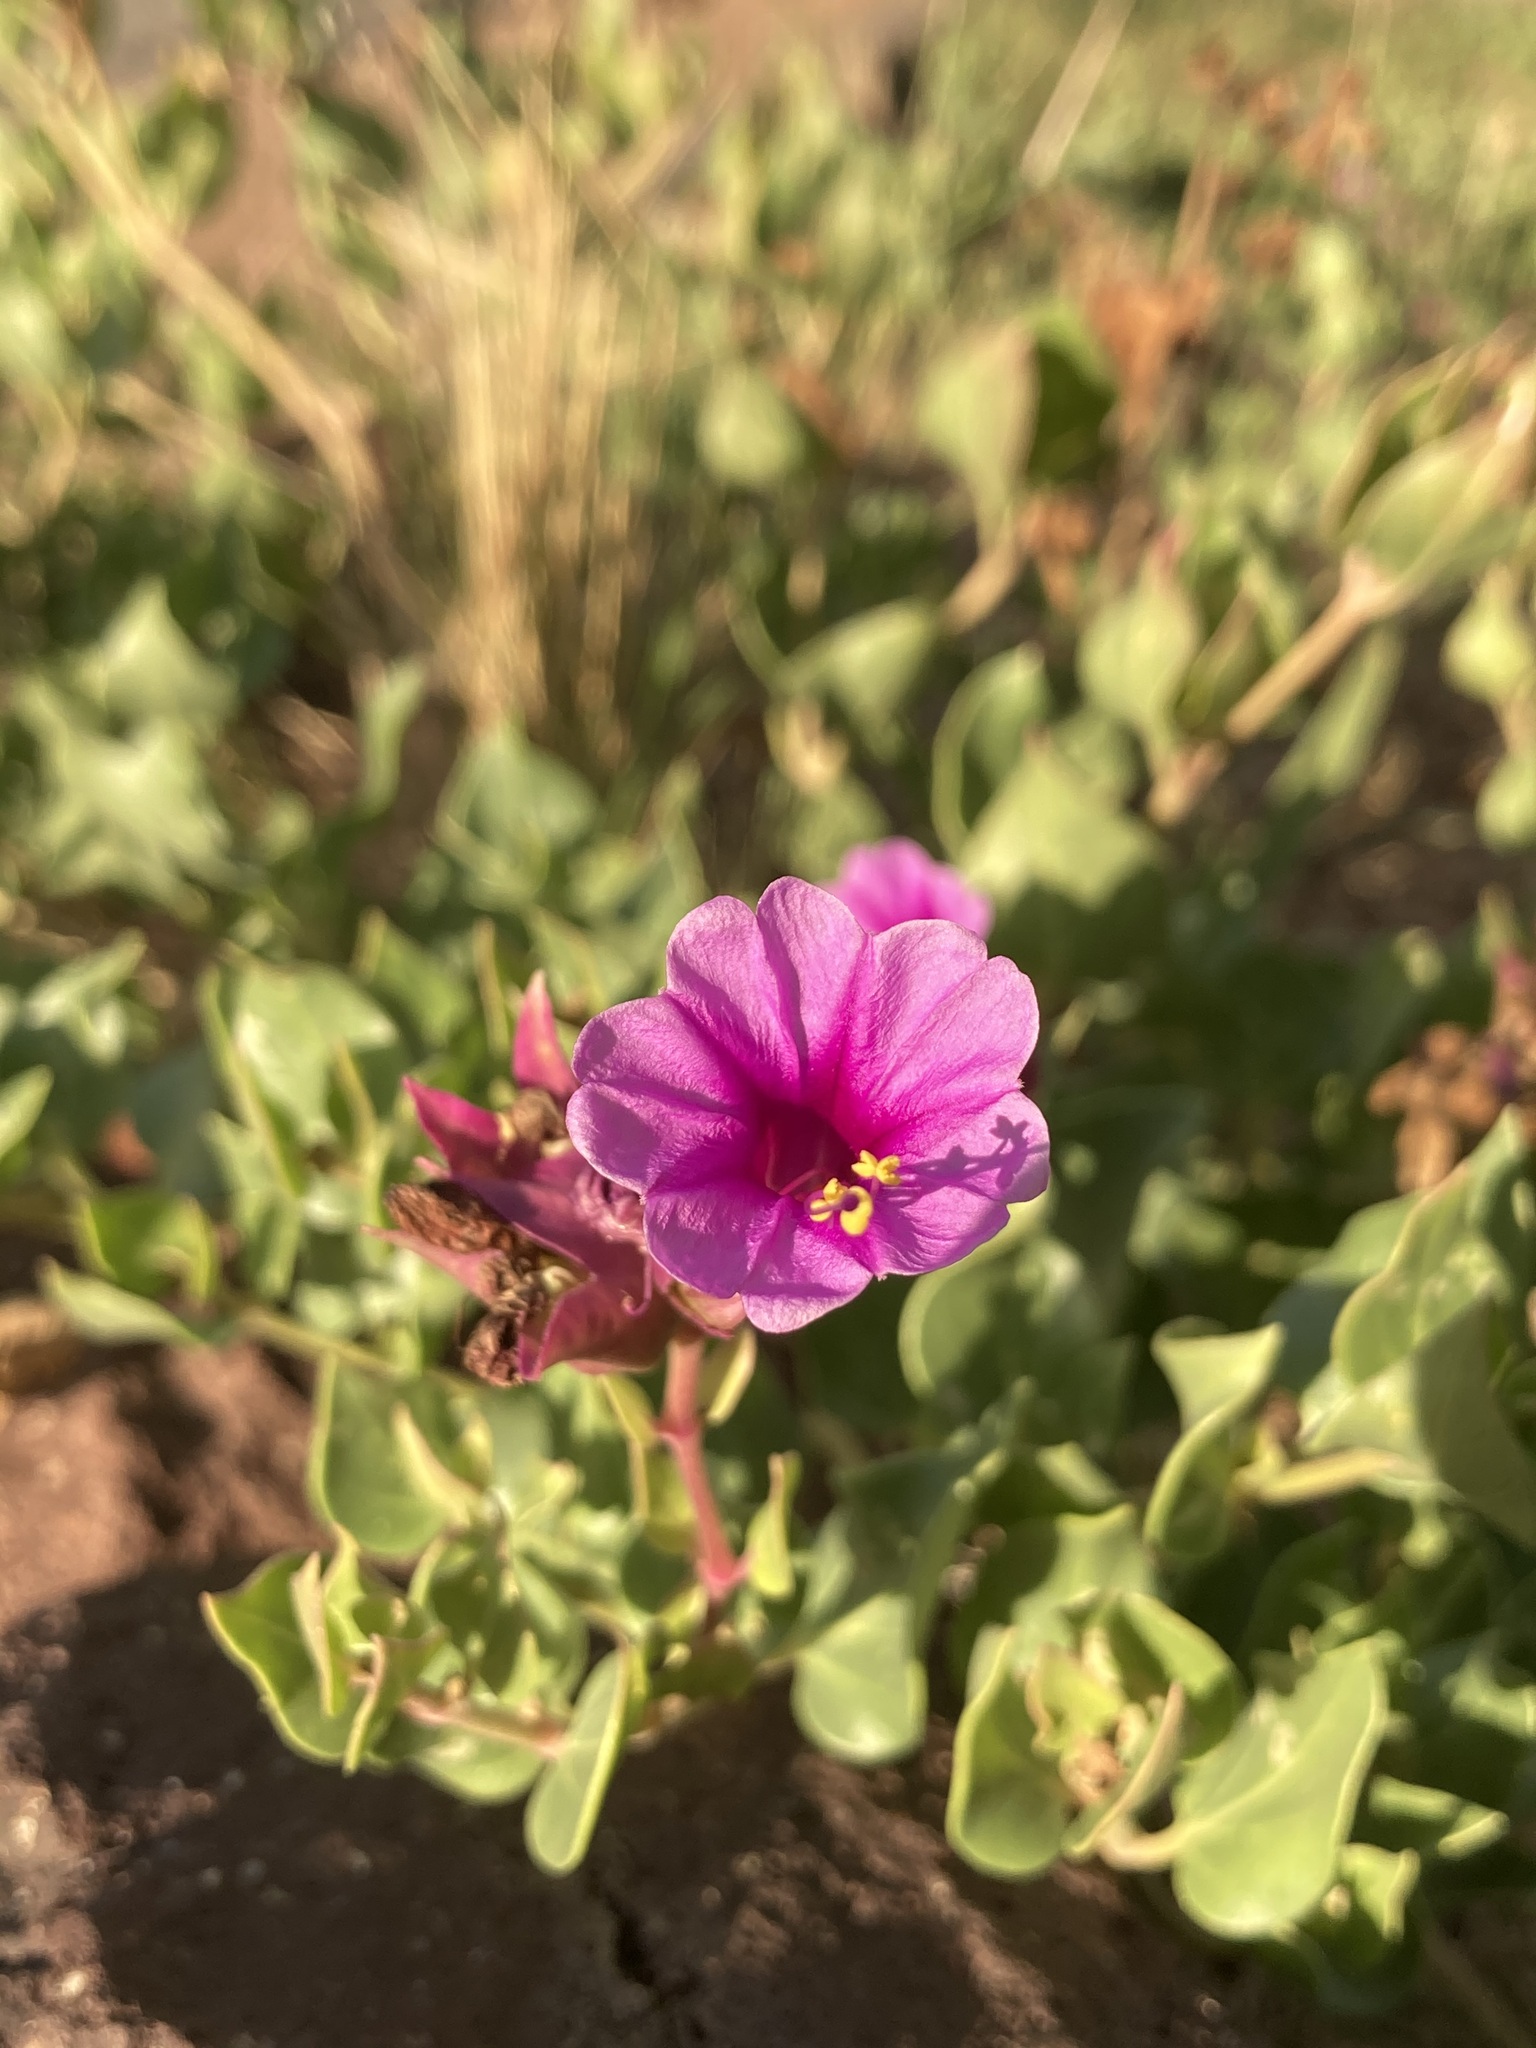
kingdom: Plantae
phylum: Tracheophyta
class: Magnoliopsida
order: Caryophyllales
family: Nyctaginaceae
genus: Mirabilis
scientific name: Mirabilis multiflora
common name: Froebel's four-o'clock
